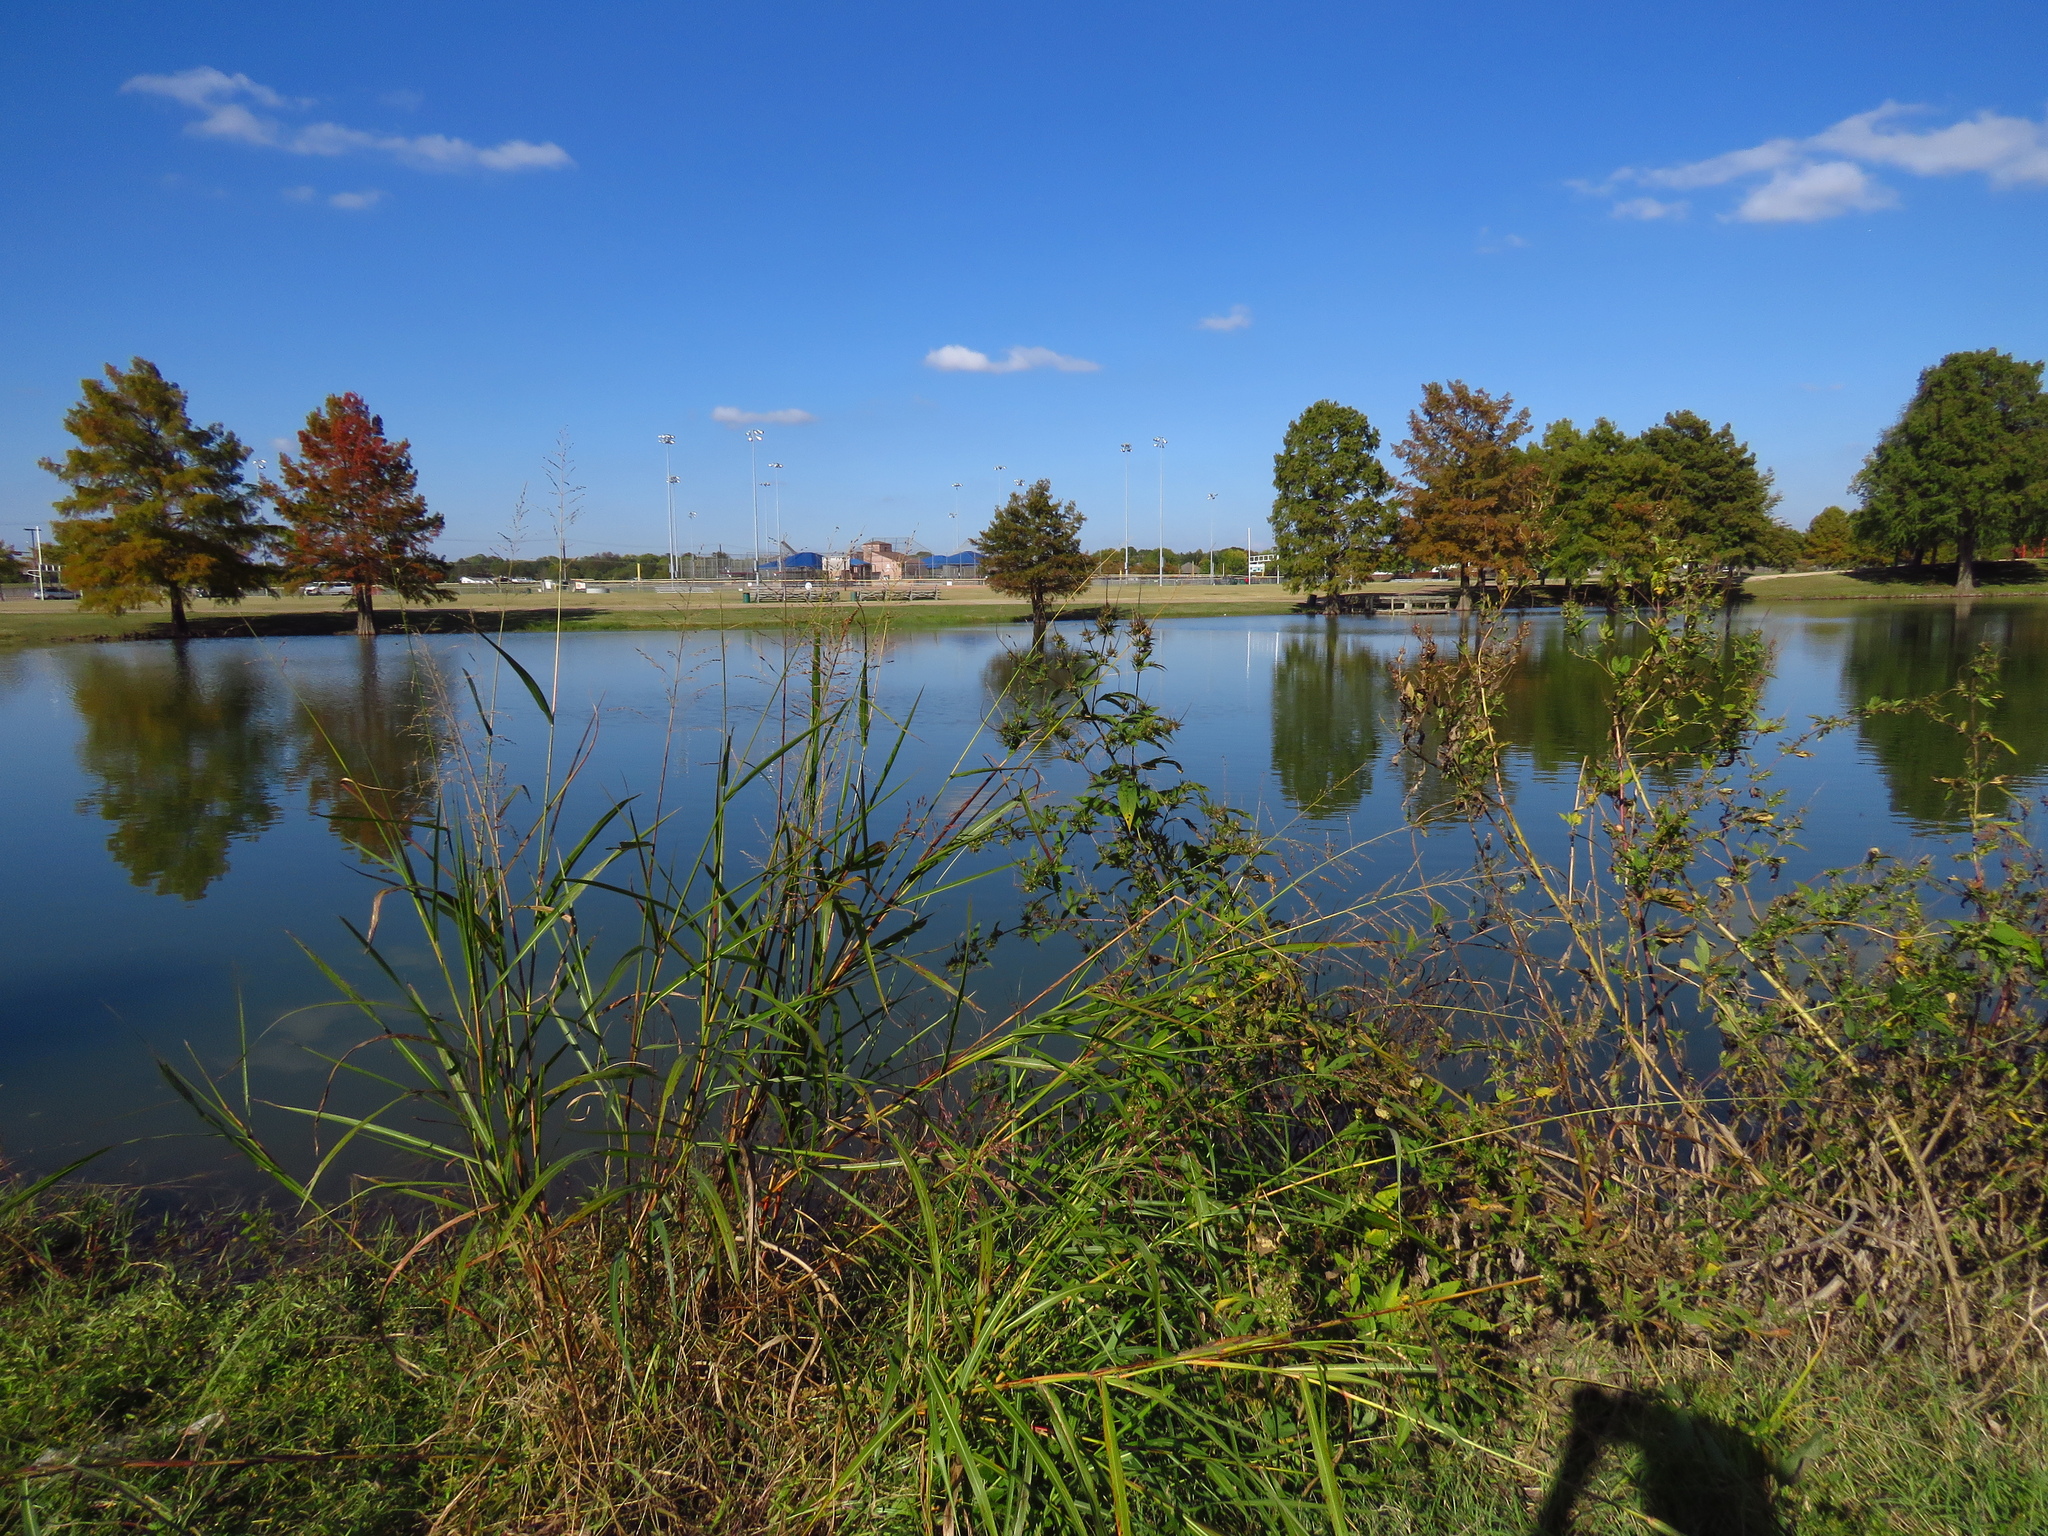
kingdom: Plantae
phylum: Tracheophyta
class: Magnoliopsida
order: Fabales
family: Fabaceae
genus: Strophostyles
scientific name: Strophostyles helvola
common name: Trailing wild bean
